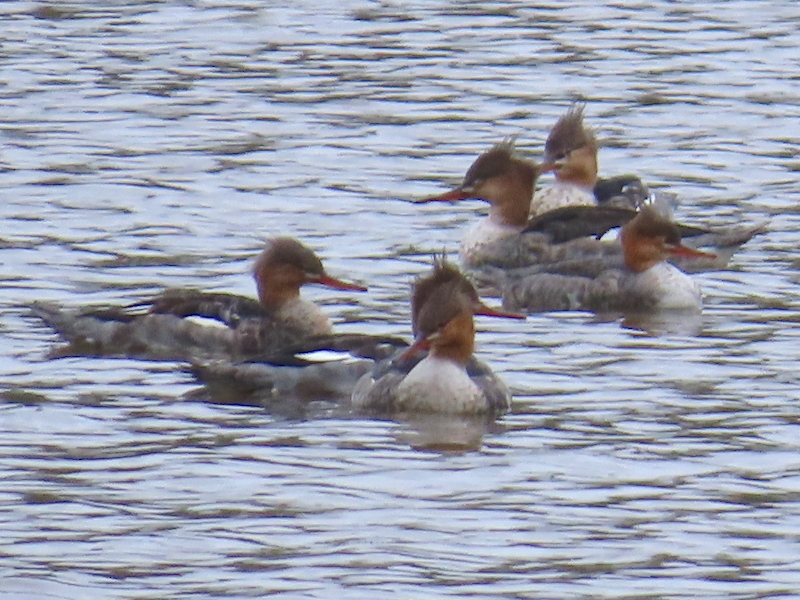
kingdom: Animalia
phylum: Chordata
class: Aves
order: Anseriformes
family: Anatidae
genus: Mergus
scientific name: Mergus serrator
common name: Red-breasted merganser
